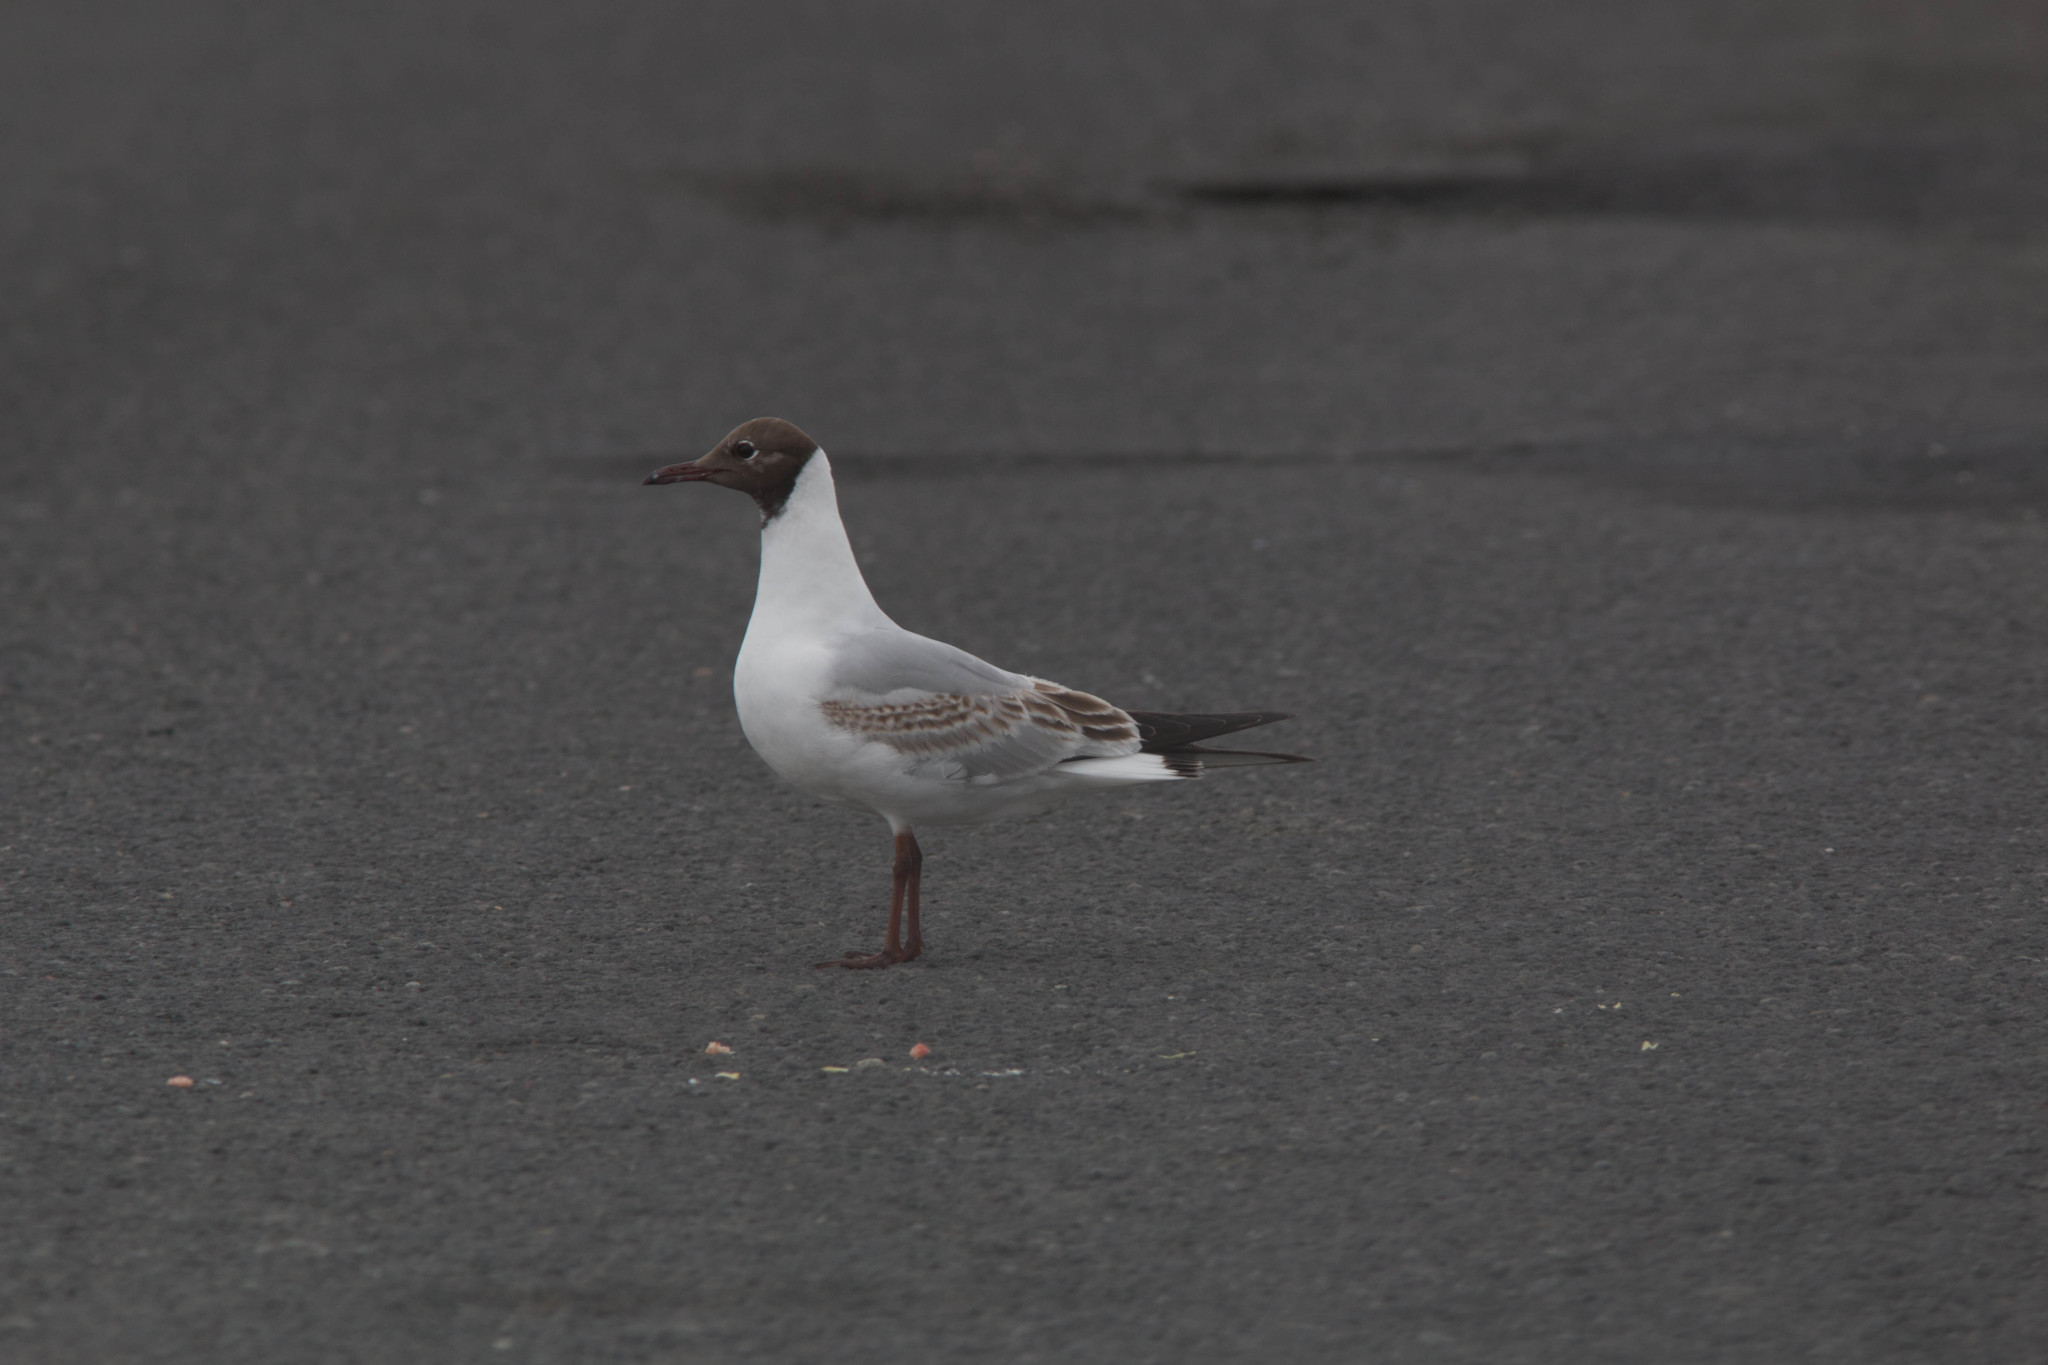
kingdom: Animalia
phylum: Chordata
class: Aves
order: Charadriiformes
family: Laridae
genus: Chroicocephalus
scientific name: Chroicocephalus ridibundus
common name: Black-headed gull
